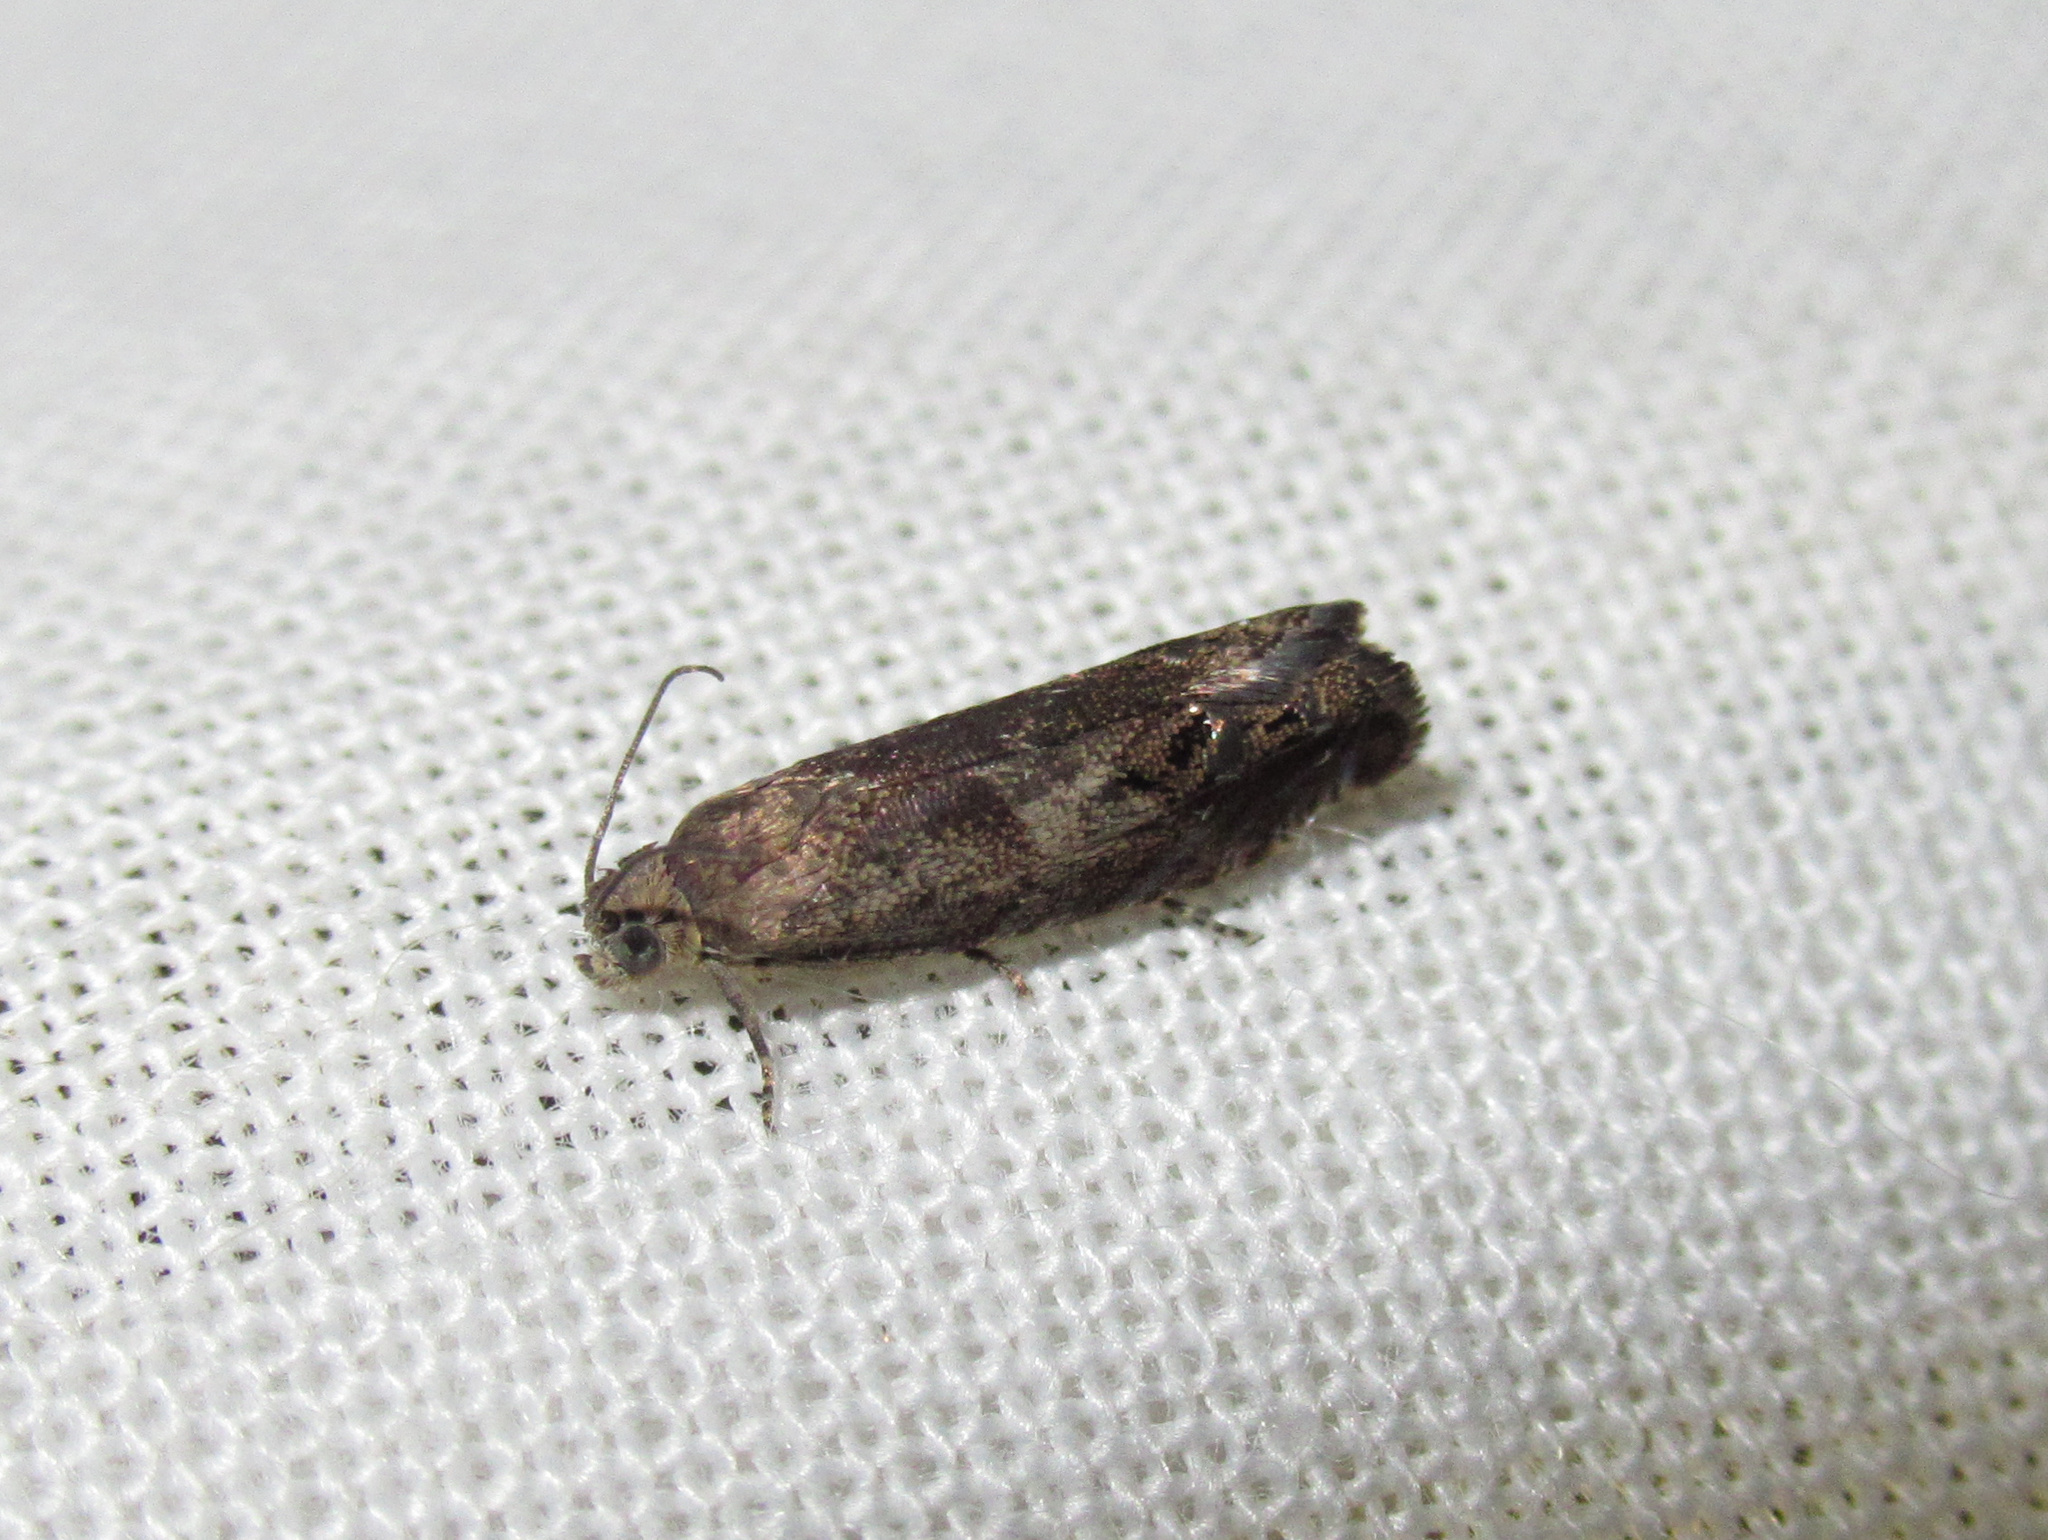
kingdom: Animalia
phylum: Arthropoda
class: Insecta
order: Lepidoptera
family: Tortricidae
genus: Cydia
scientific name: Cydia succedana
